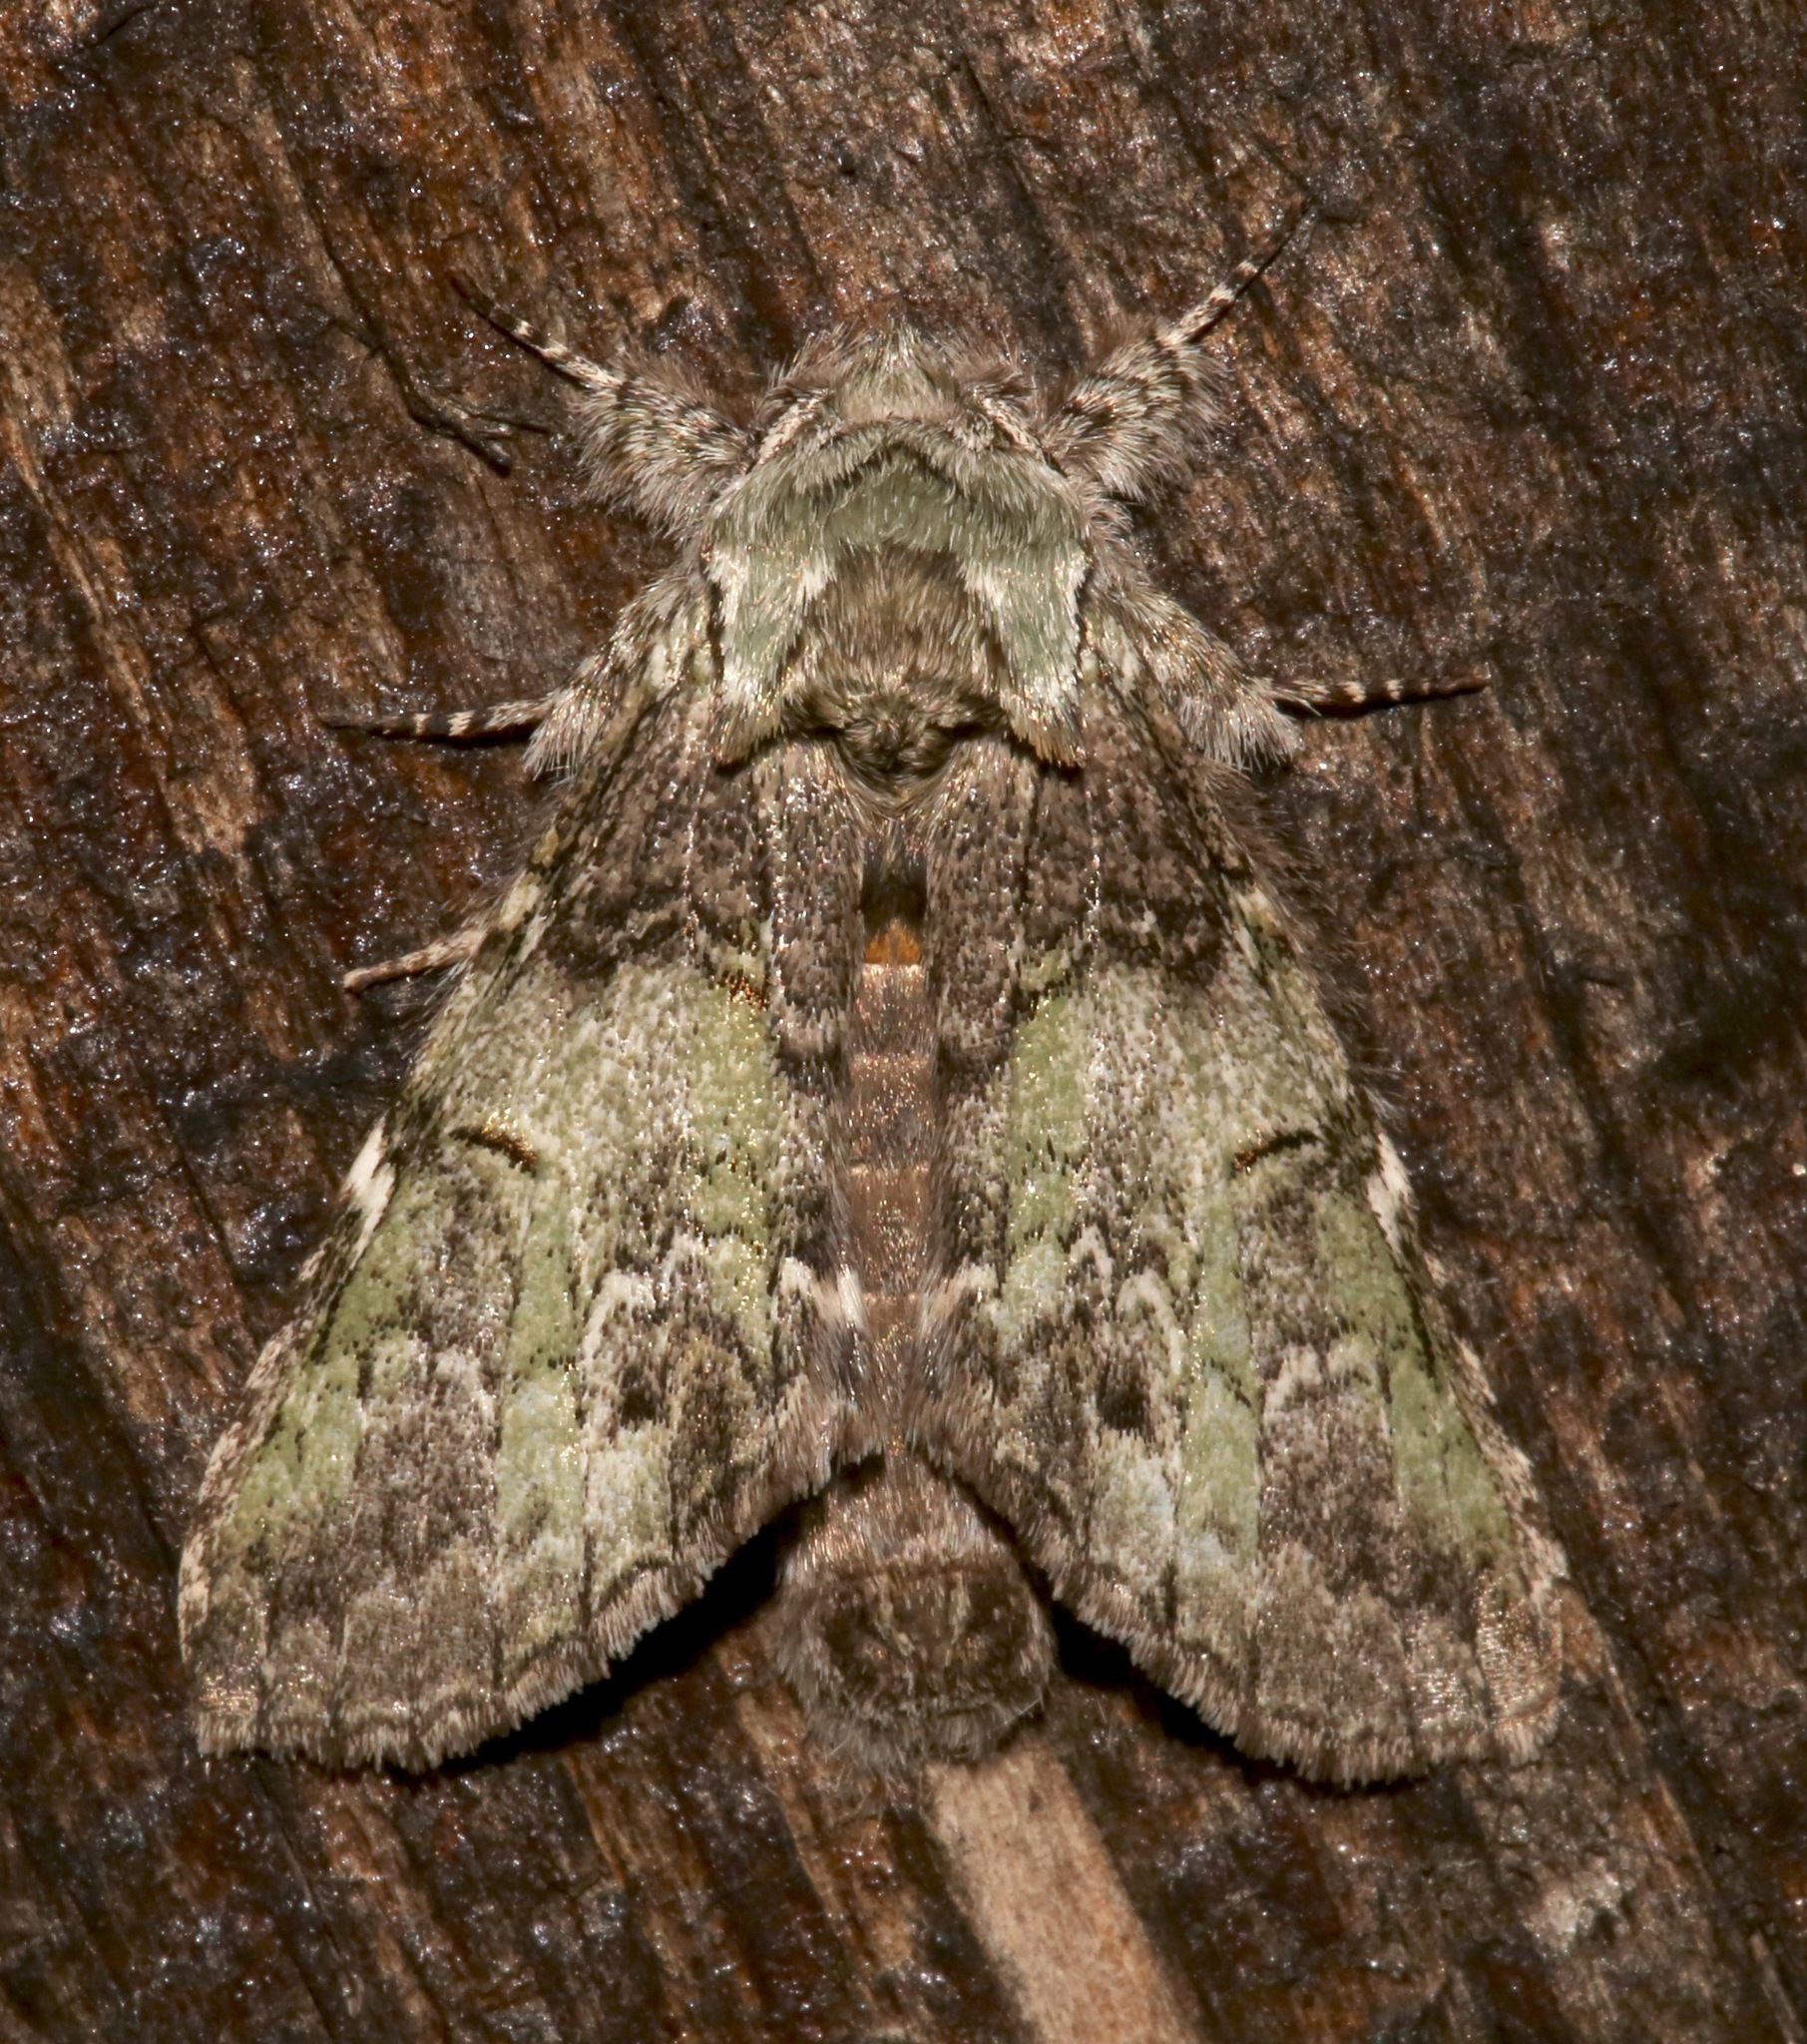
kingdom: Animalia
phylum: Arthropoda
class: Insecta
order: Lepidoptera
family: Notodontidae
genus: Macrurocampa
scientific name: Macrurocampa marthesia
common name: Mottled prominent
